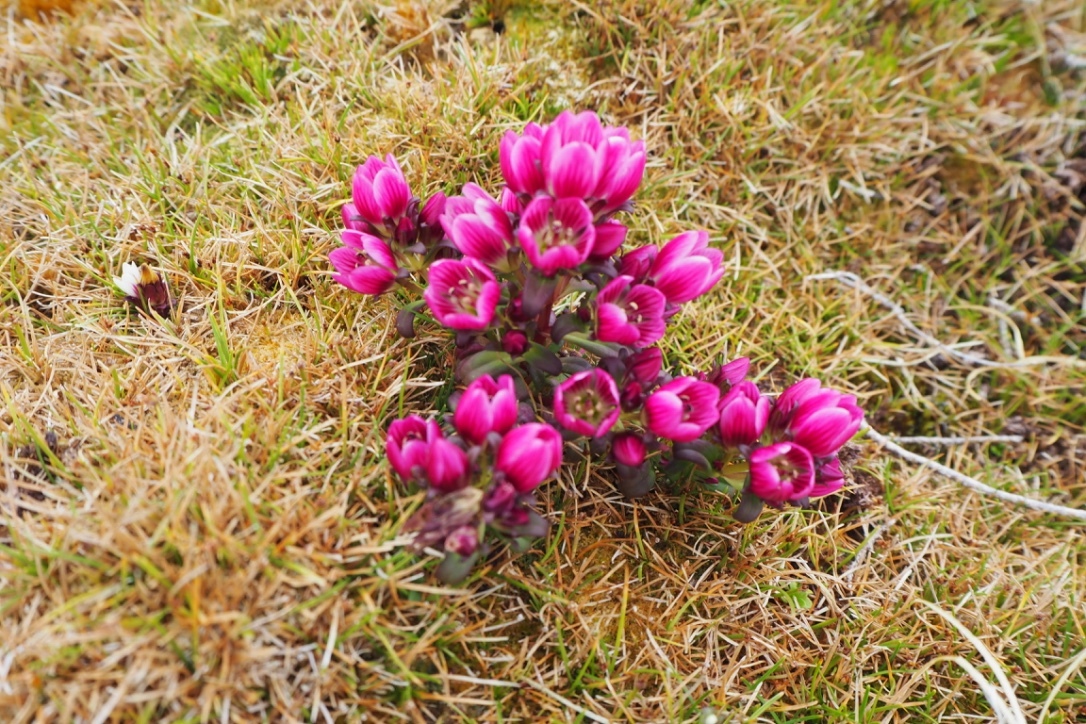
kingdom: Plantae
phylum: Tracheophyta
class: Magnoliopsida
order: Gentianales
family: Gentianaceae
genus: Gentianella
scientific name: Gentianella concinna
